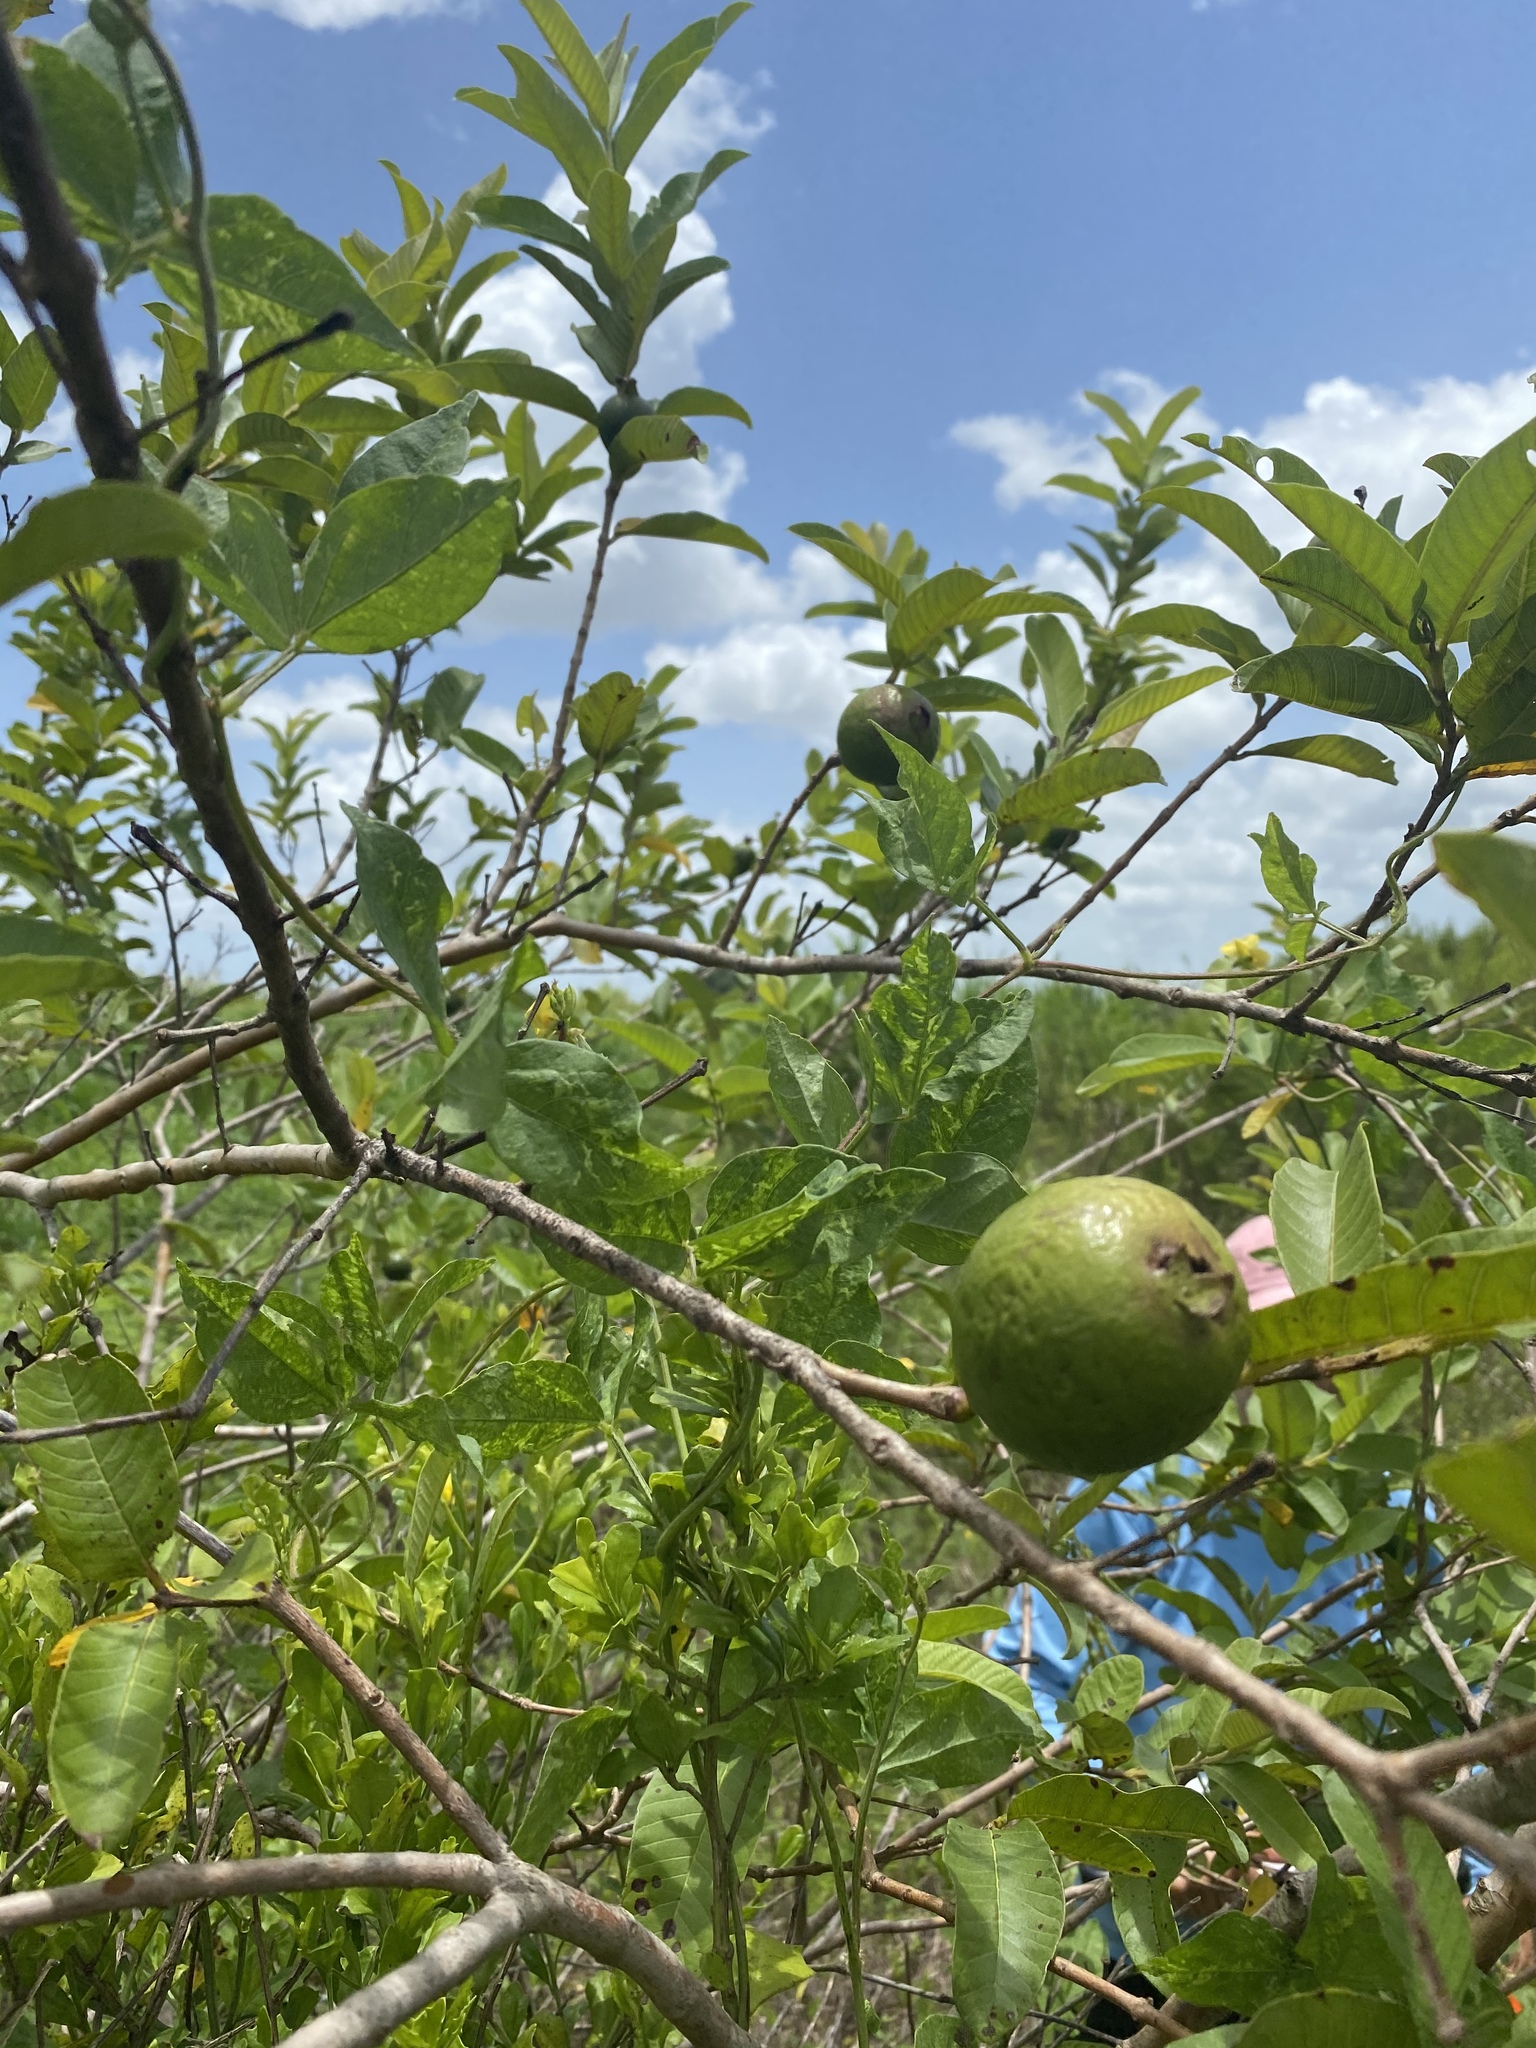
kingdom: Plantae
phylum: Tracheophyta
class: Magnoliopsida
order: Myrtales
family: Myrtaceae
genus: Psidium
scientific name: Psidium guajava
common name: Guava
